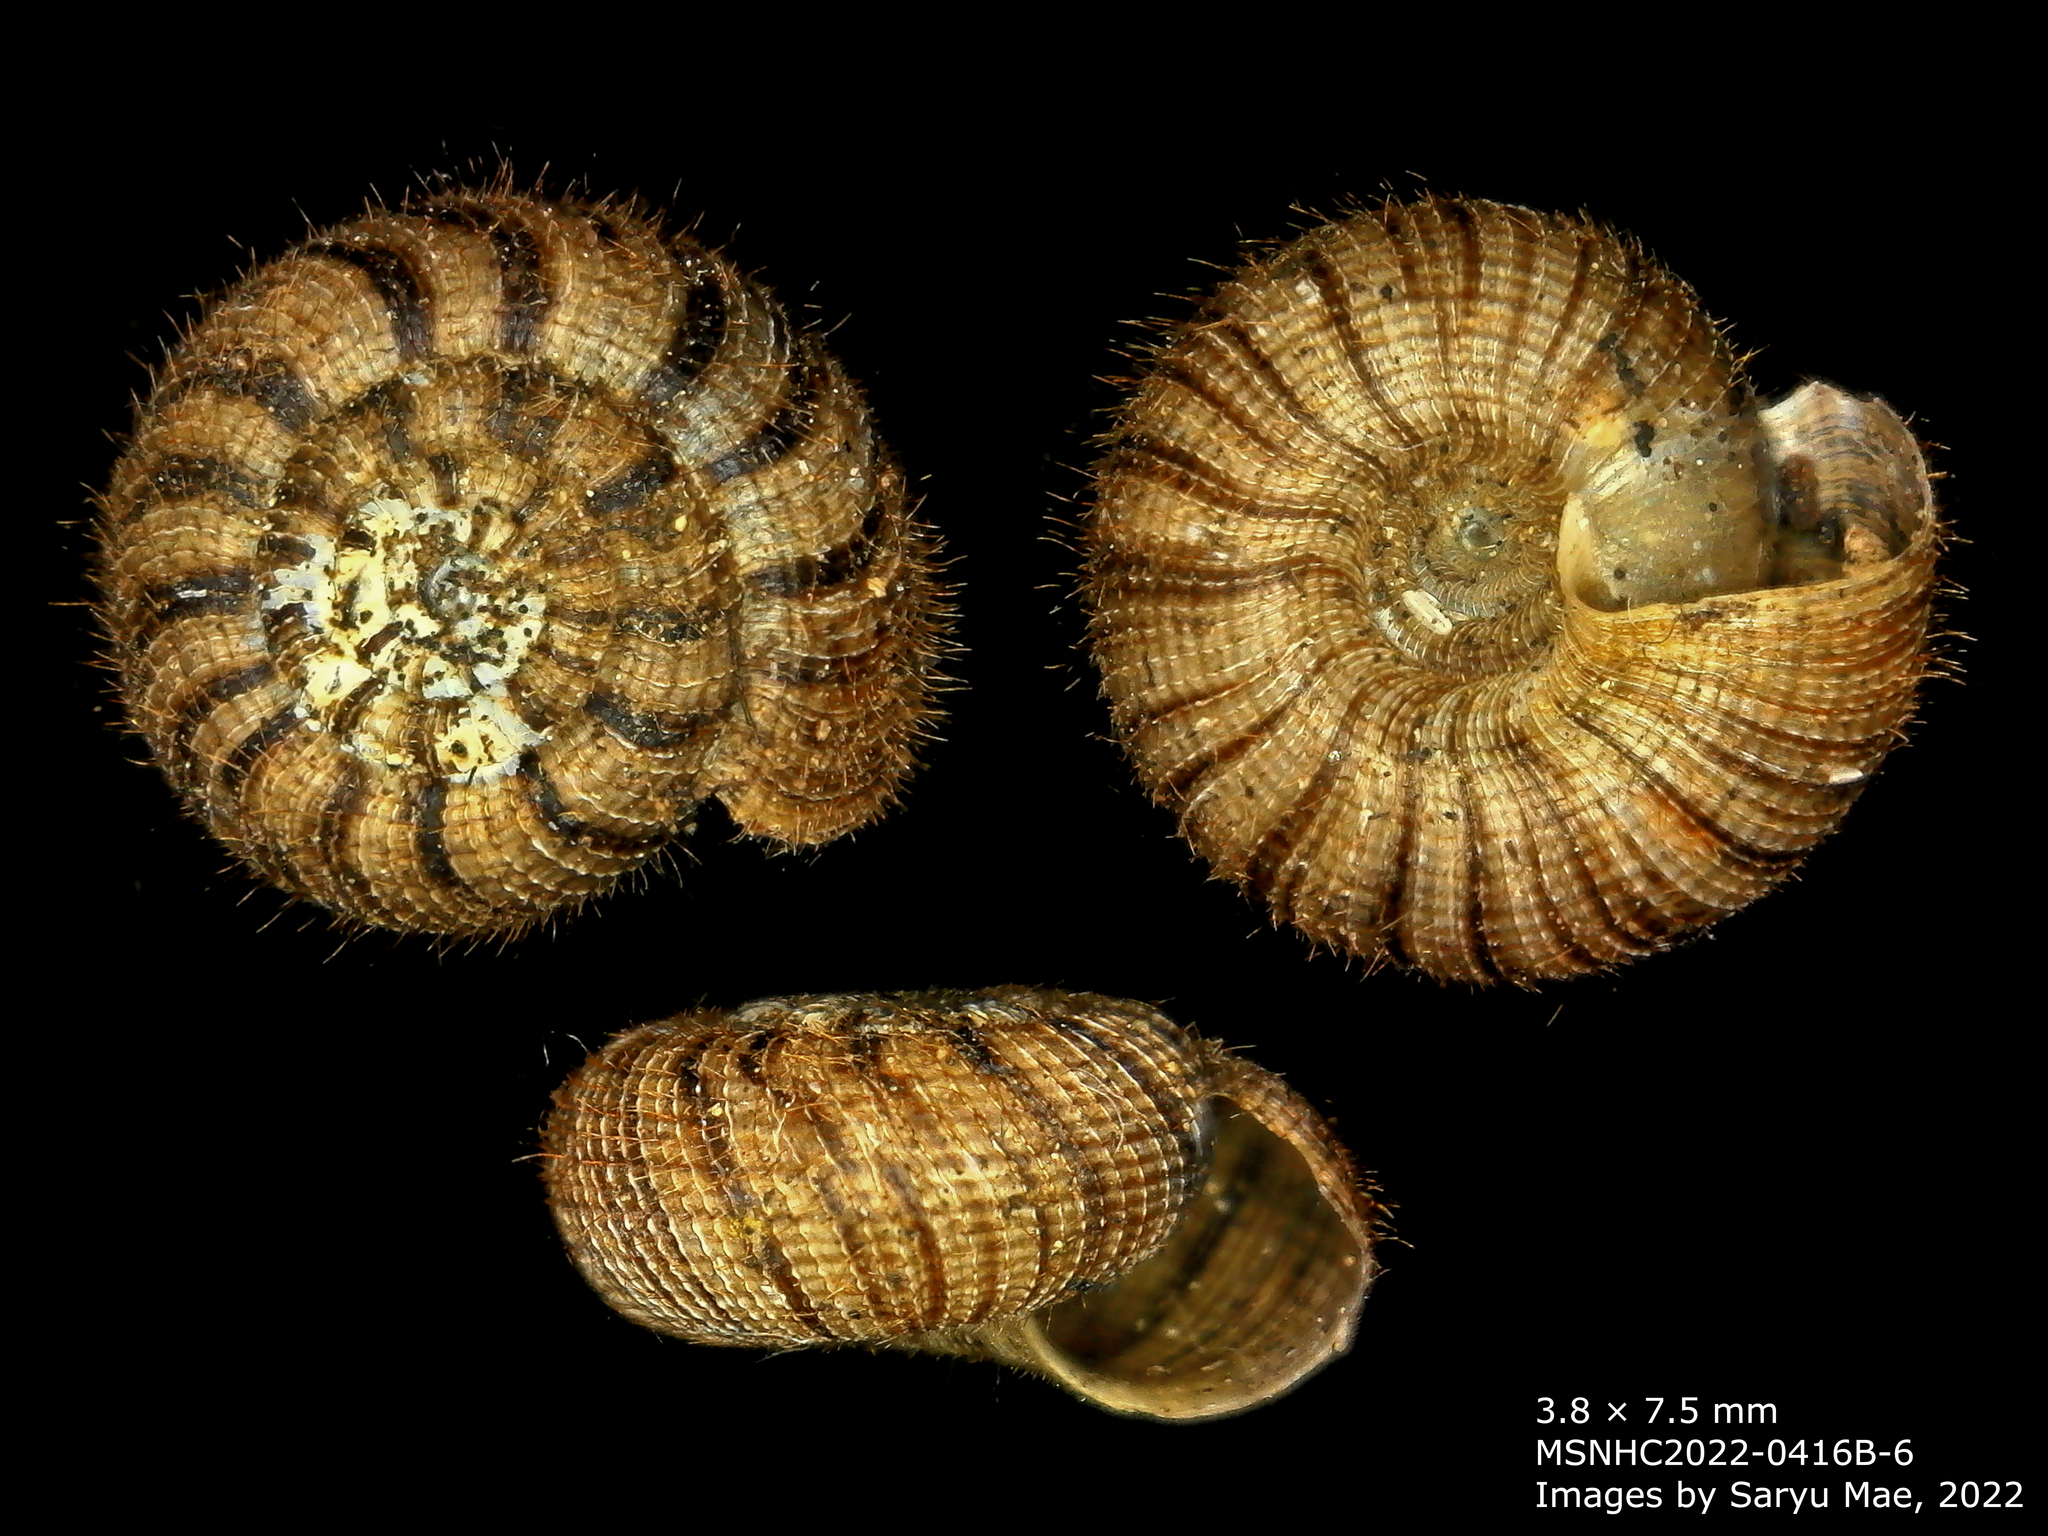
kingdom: Animalia
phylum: Mollusca
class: Gastropoda
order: Stylommatophora
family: Charopidae
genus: Suteria
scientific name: Suteria
